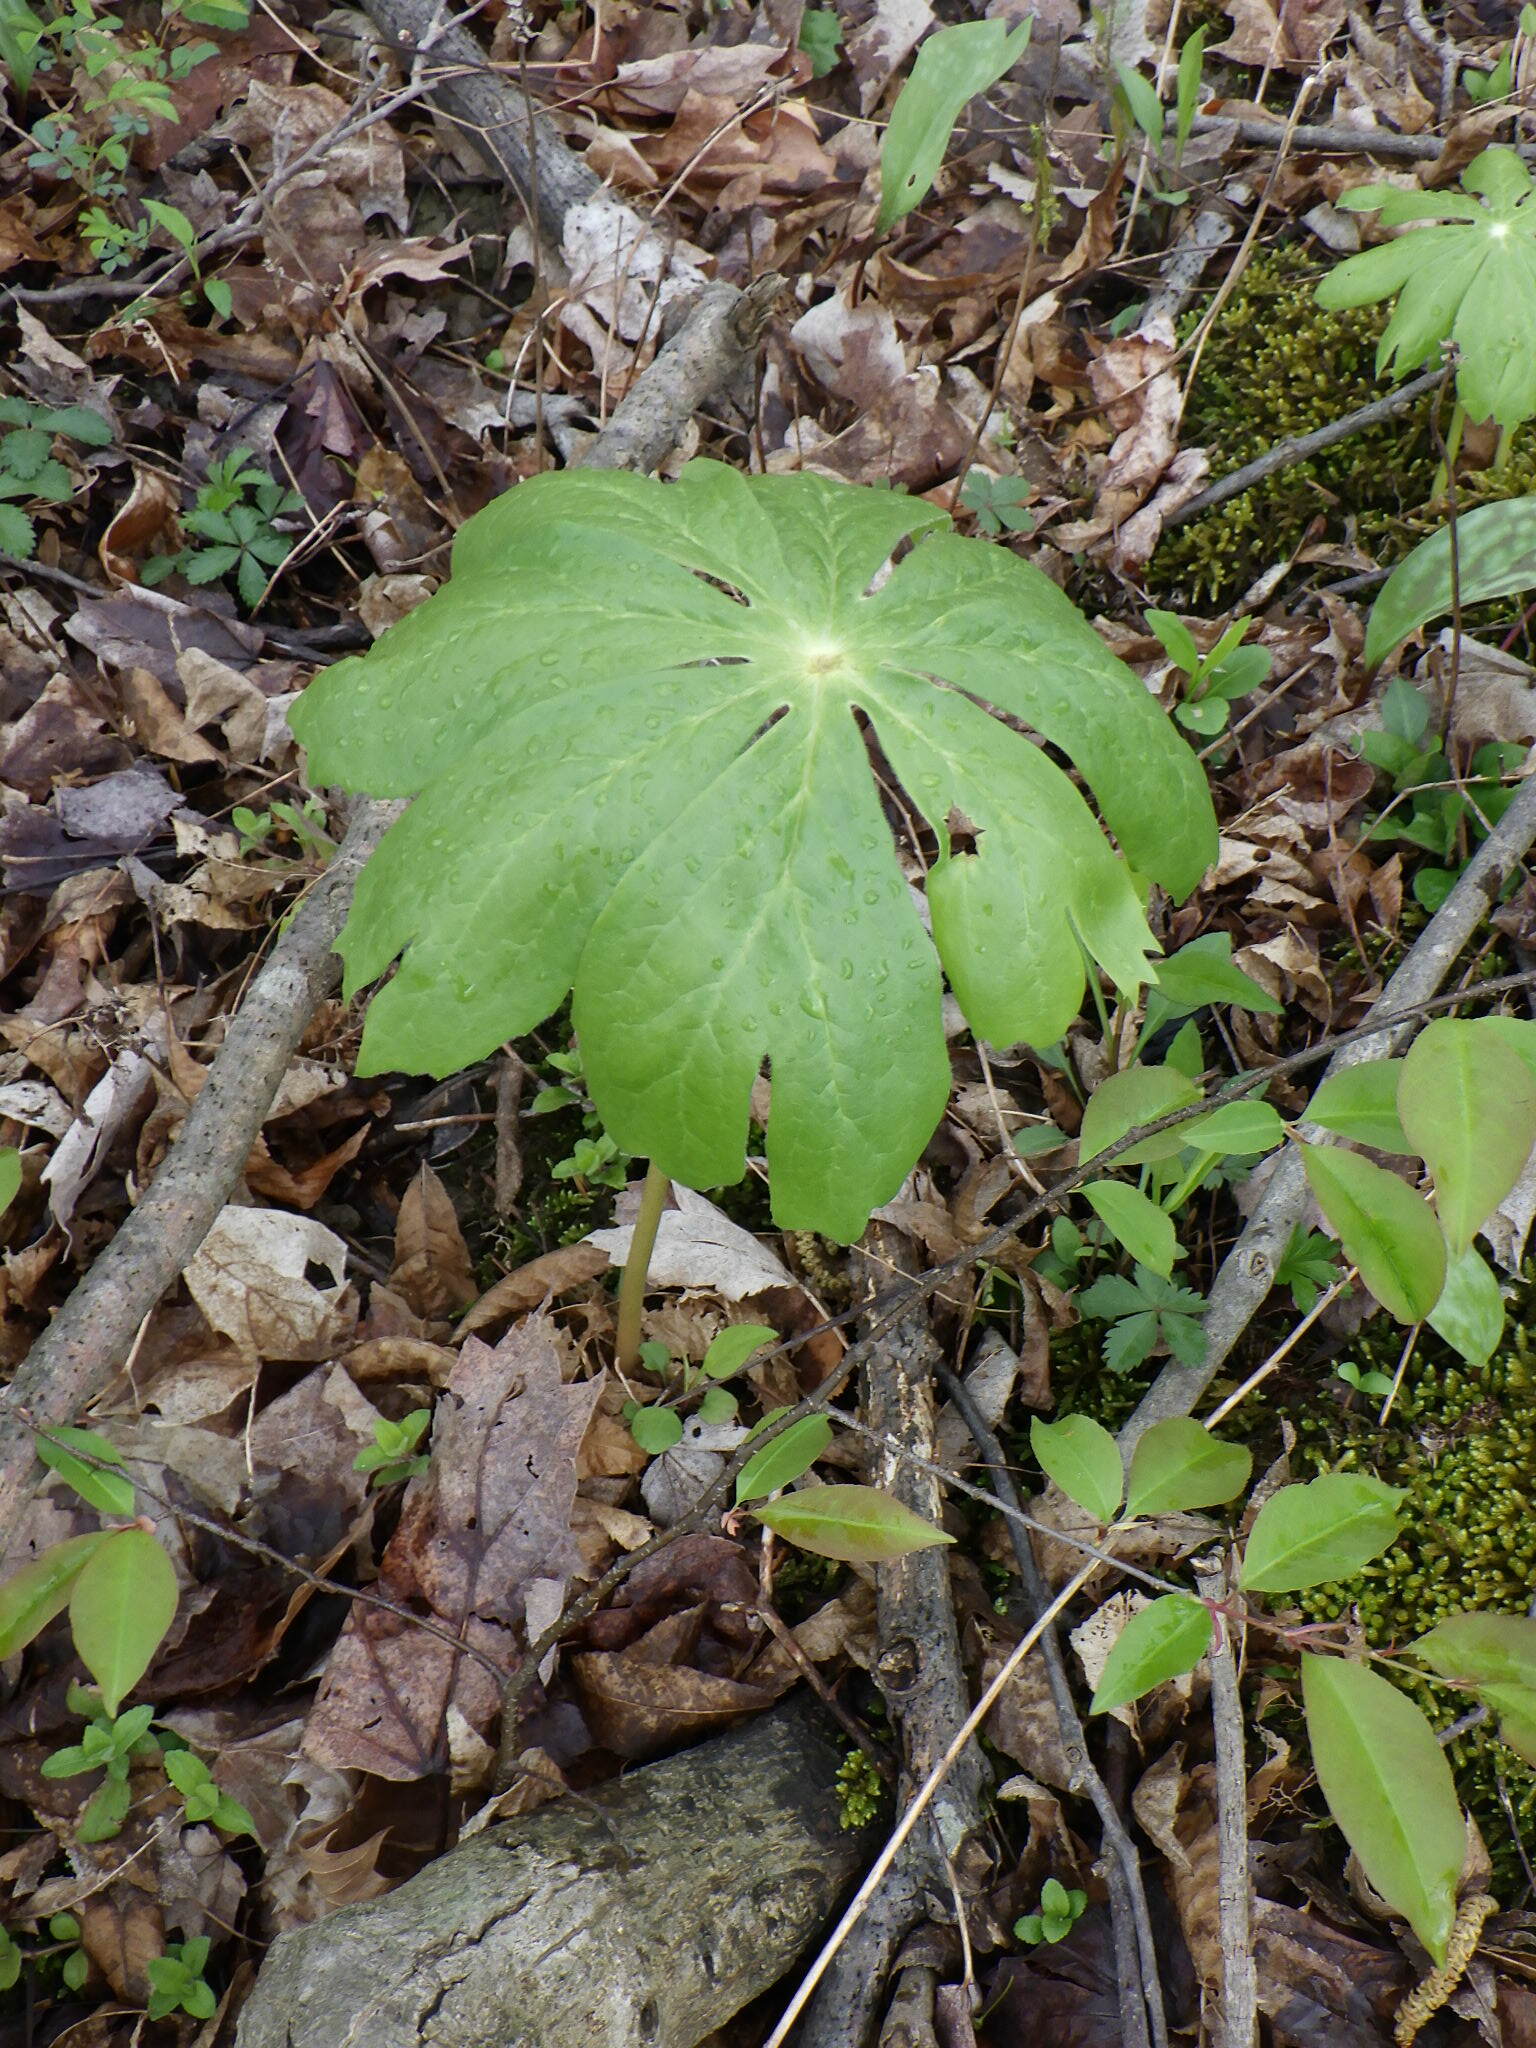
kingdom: Plantae
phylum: Tracheophyta
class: Magnoliopsida
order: Ranunculales
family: Berberidaceae
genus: Podophyllum
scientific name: Podophyllum peltatum
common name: Wild mandrake
